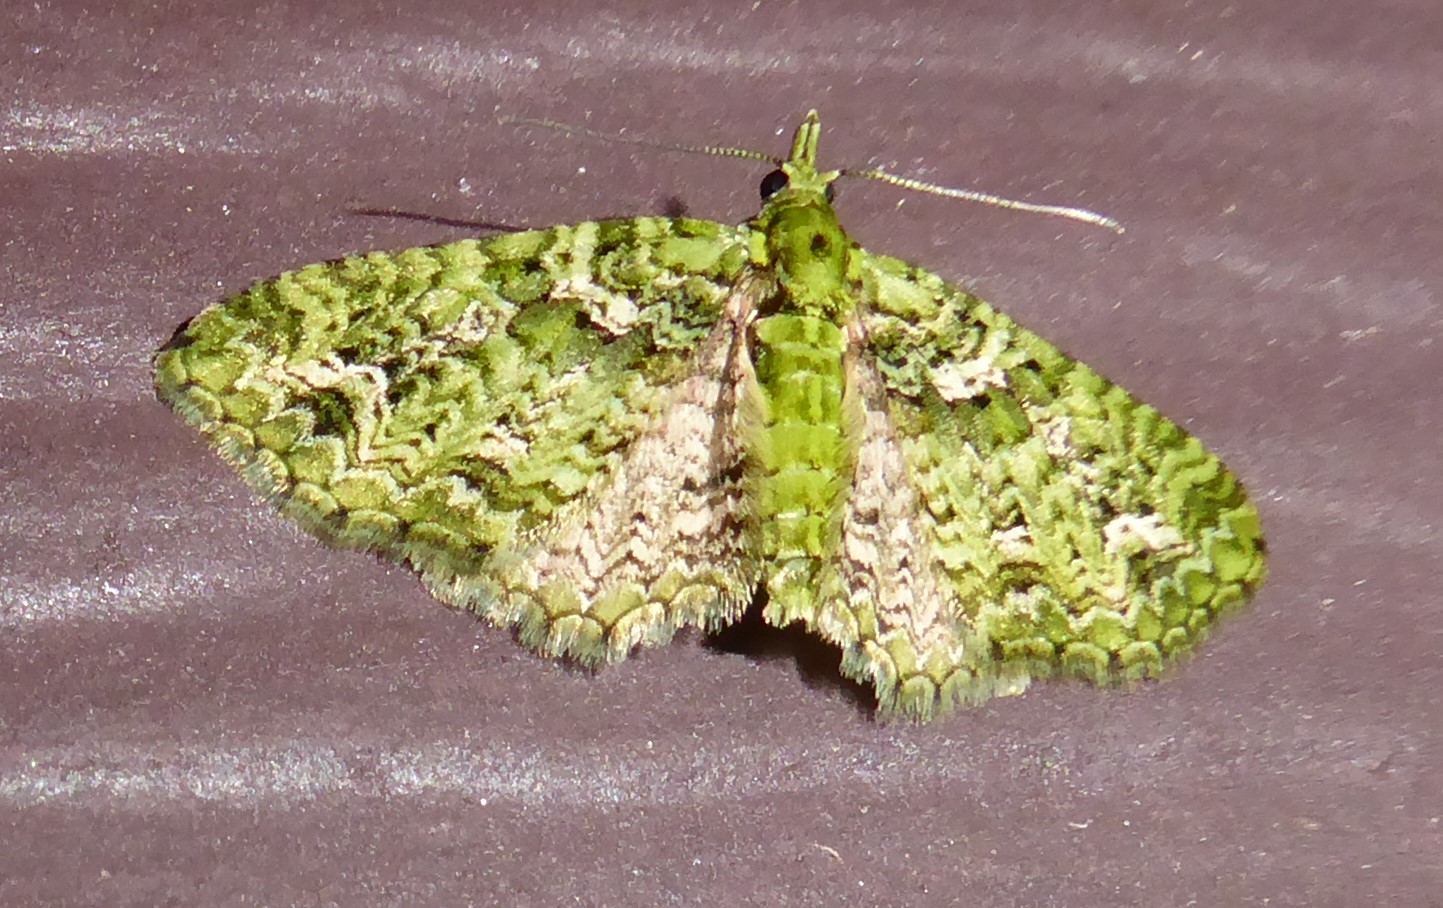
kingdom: Animalia
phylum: Arthropoda
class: Insecta
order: Lepidoptera
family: Geometridae
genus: Pasiphila
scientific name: Pasiphila muscosata
